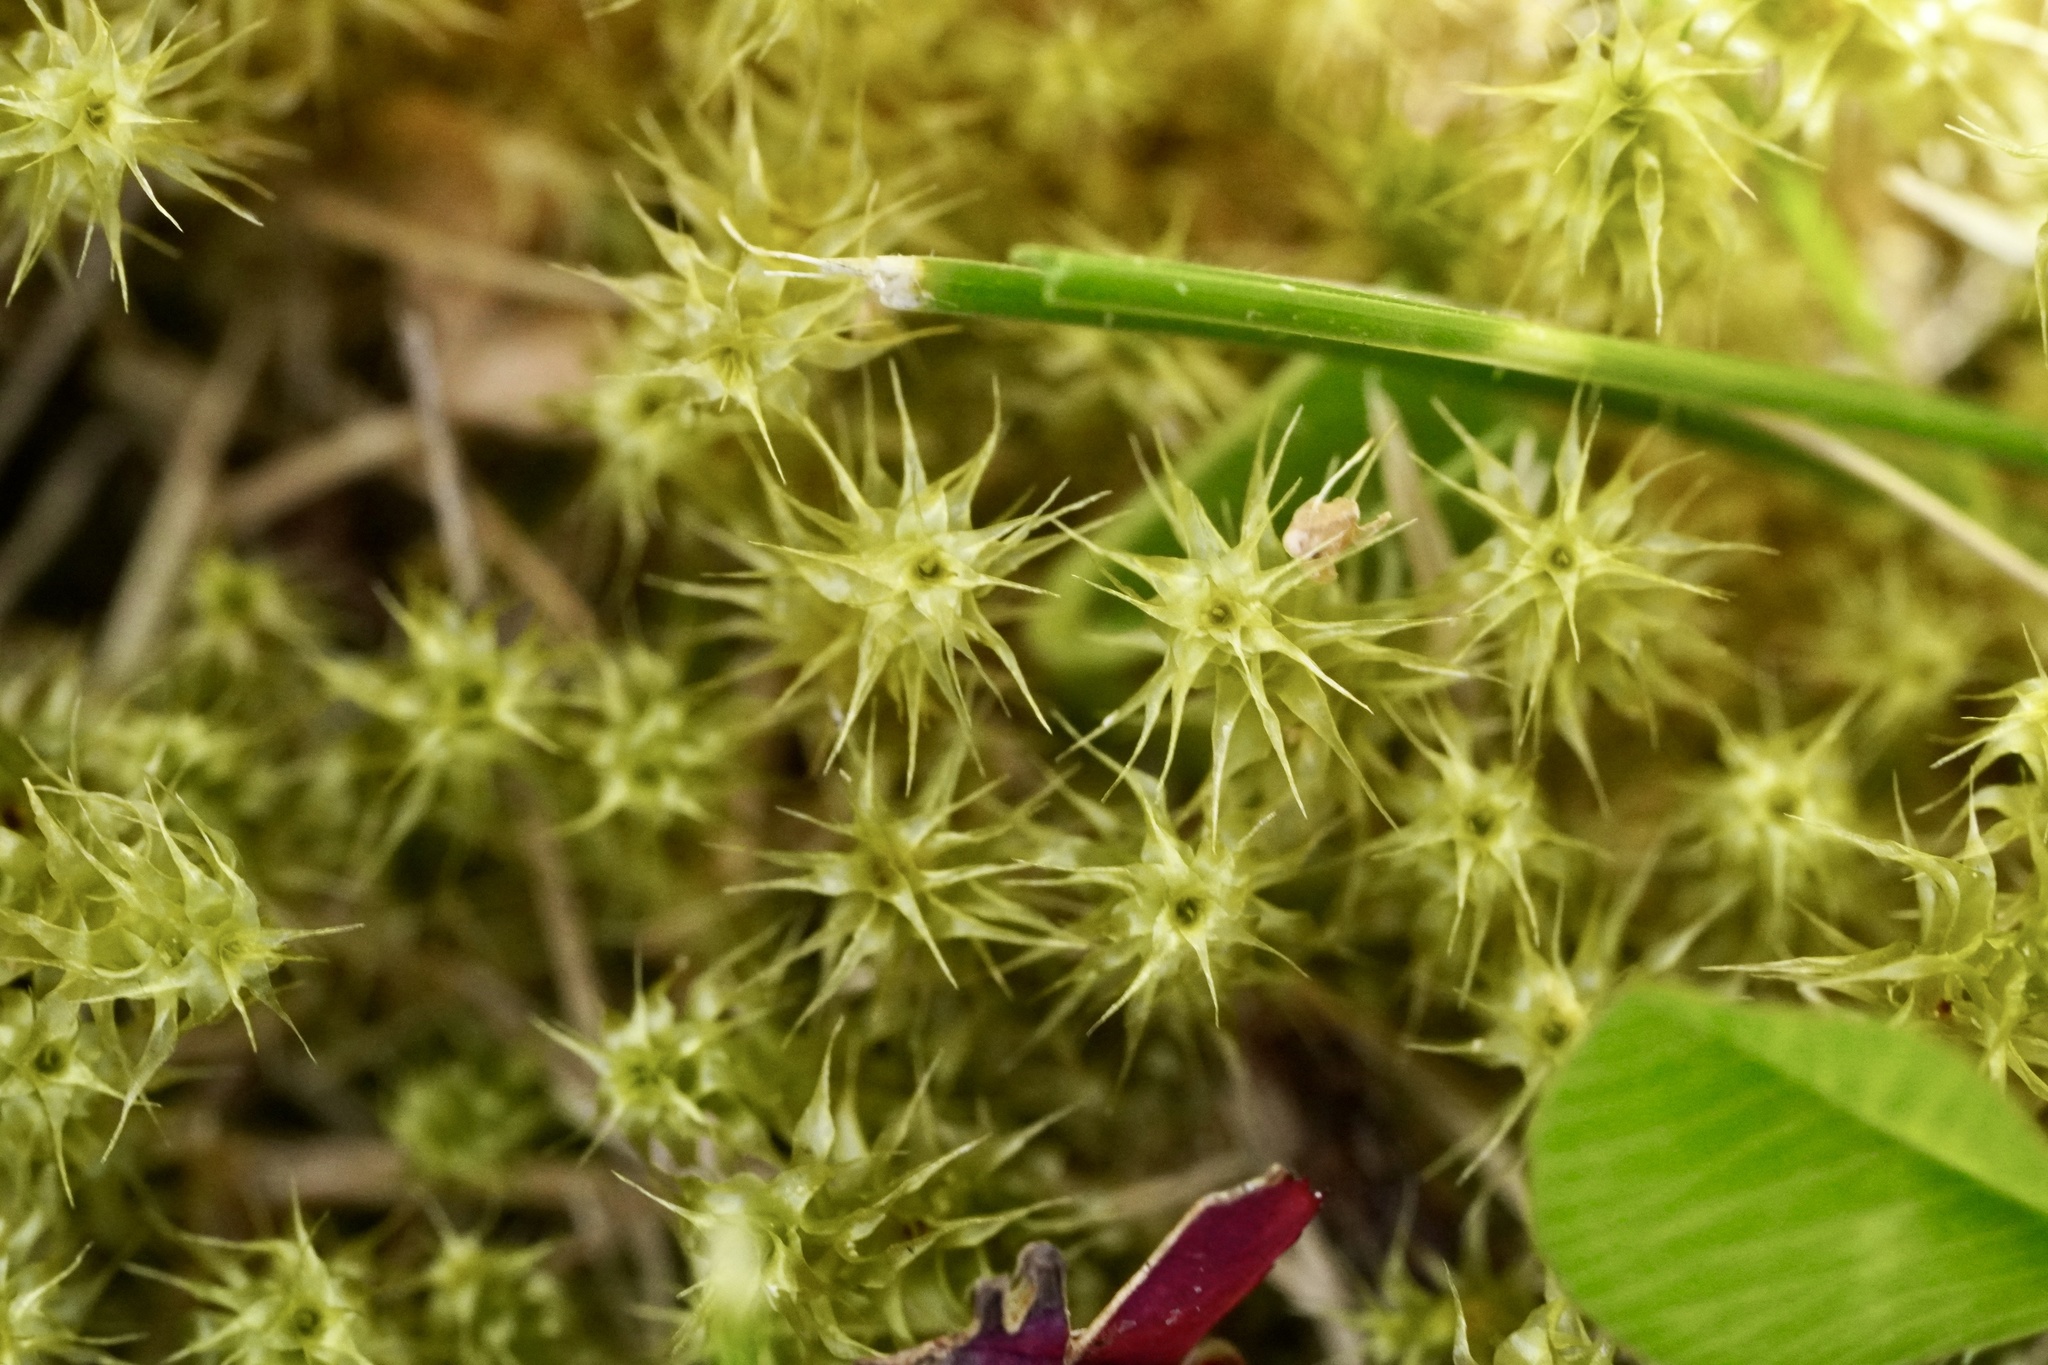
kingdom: Plantae
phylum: Bryophyta
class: Bryopsida
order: Hypnales
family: Hylocomiaceae
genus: Rhytidiadelphus
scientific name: Rhytidiadelphus squarrosus
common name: Springy turf-moss
